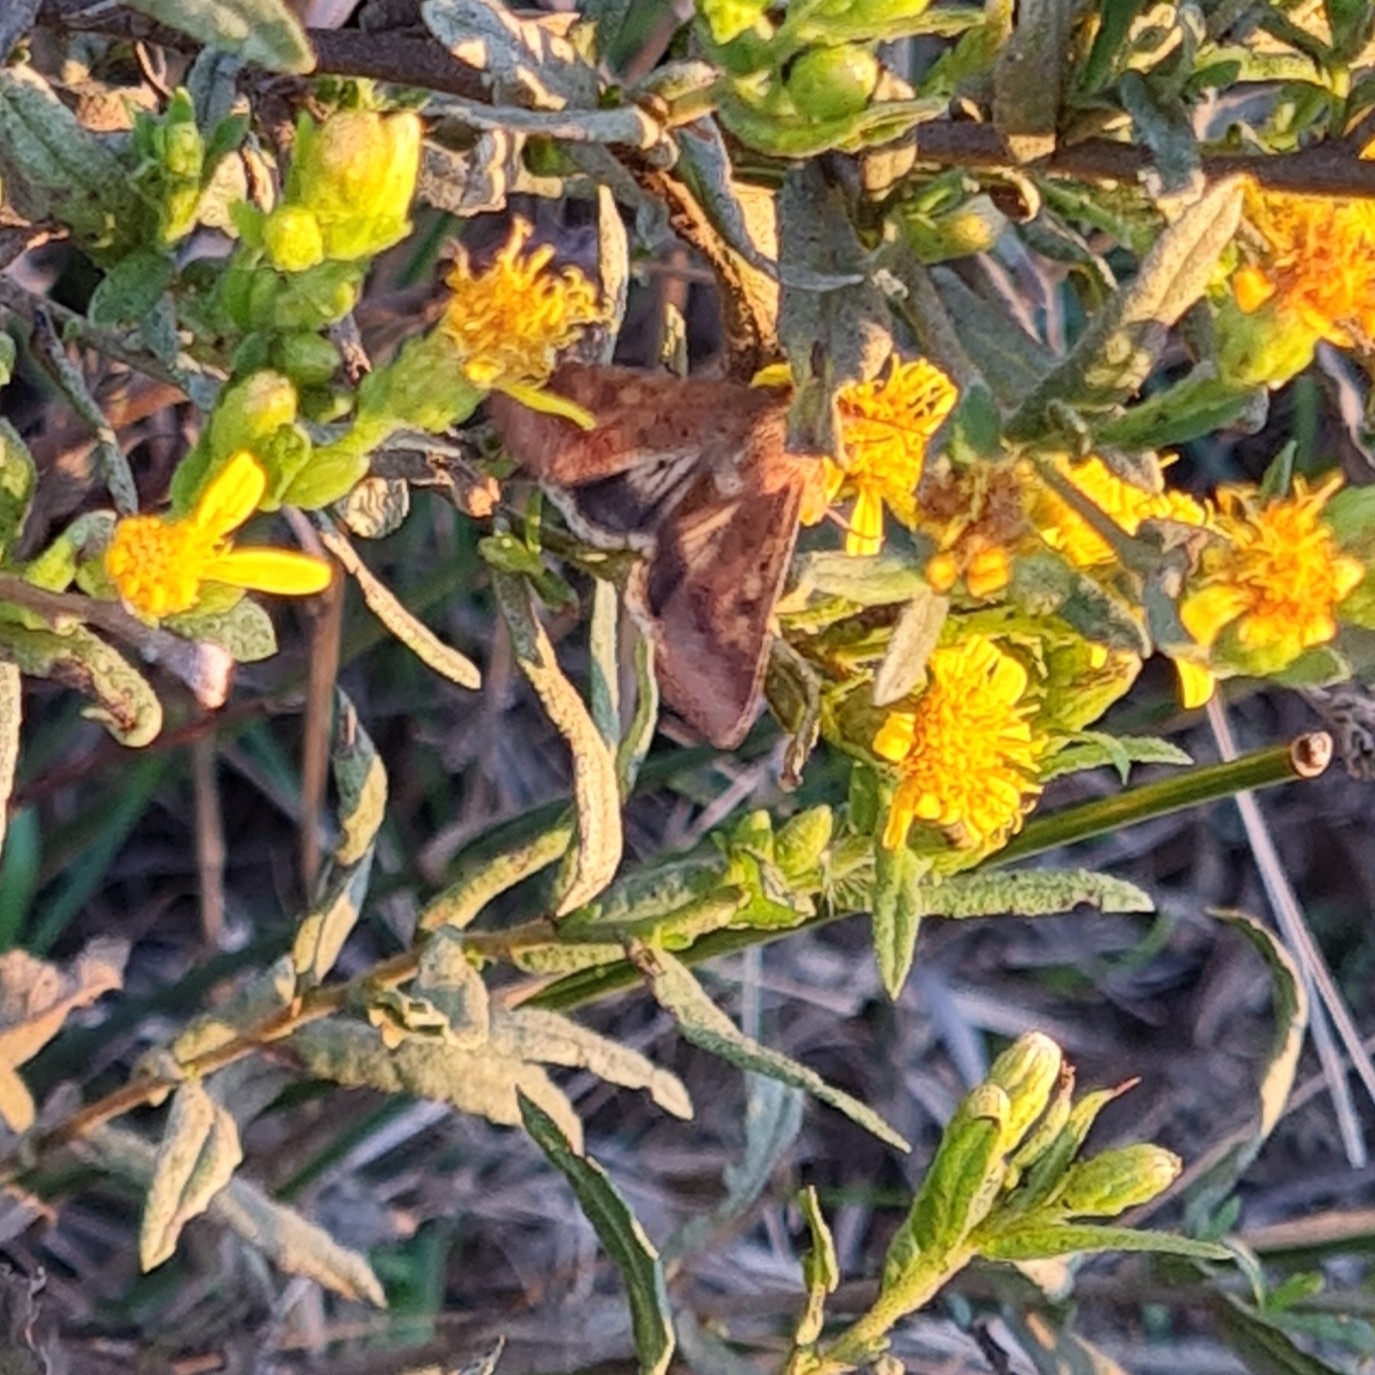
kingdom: Animalia
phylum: Arthropoda
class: Insecta
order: Lepidoptera
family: Noctuidae
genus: Helicoverpa
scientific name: Helicoverpa armigera
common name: Cotton bollworm
